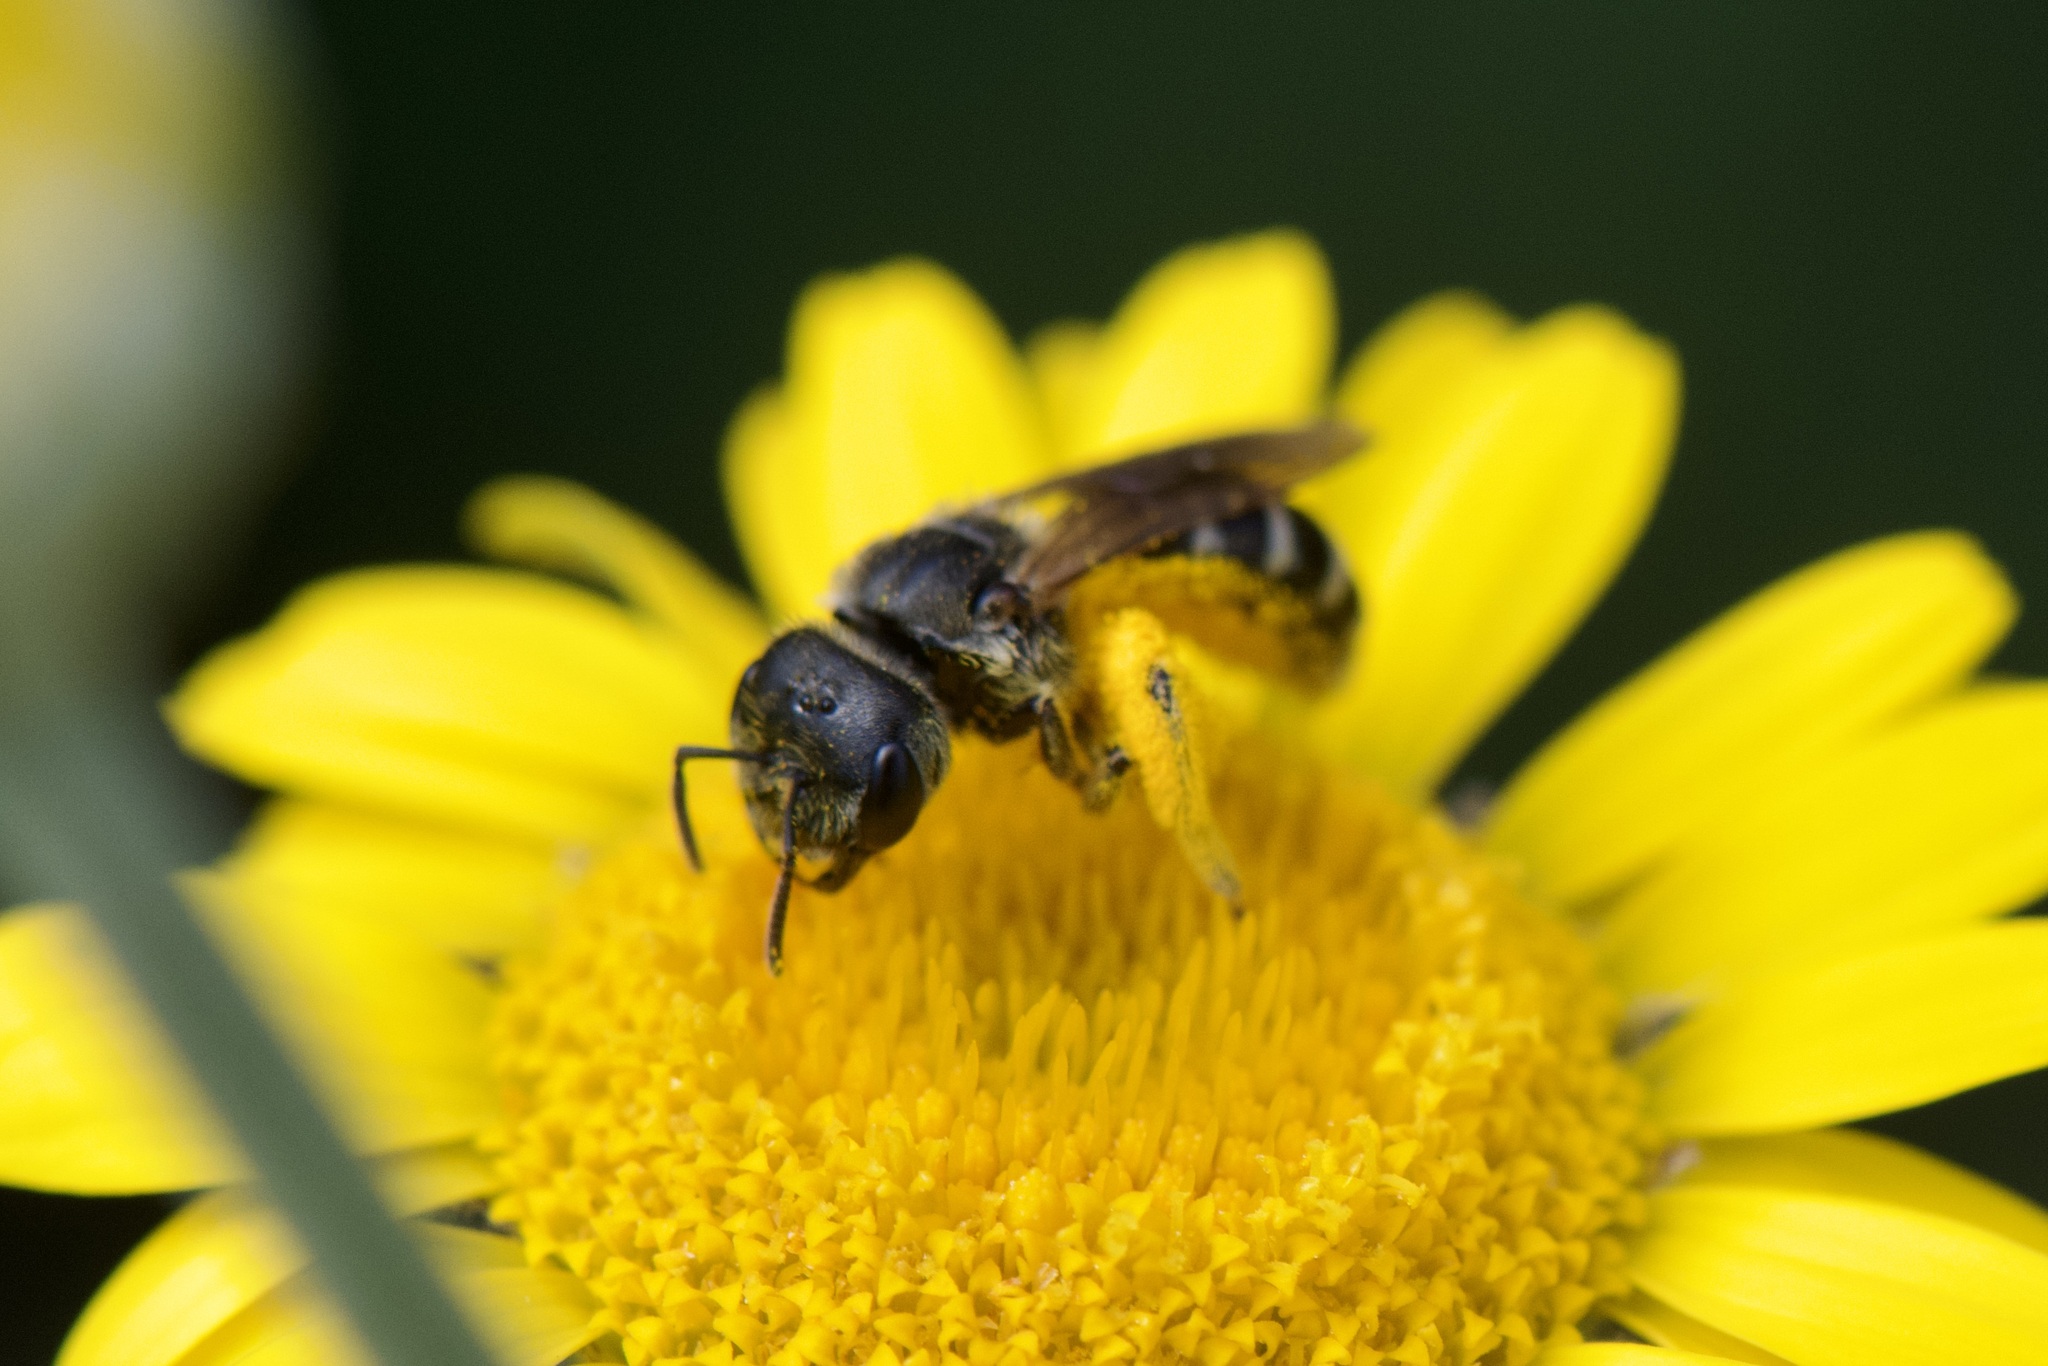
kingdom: Animalia
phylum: Arthropoda
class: Insecta
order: Hymenoptera
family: Halictidae
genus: Halictus
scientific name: Halictus ligatus
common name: Ligated furrow bee
